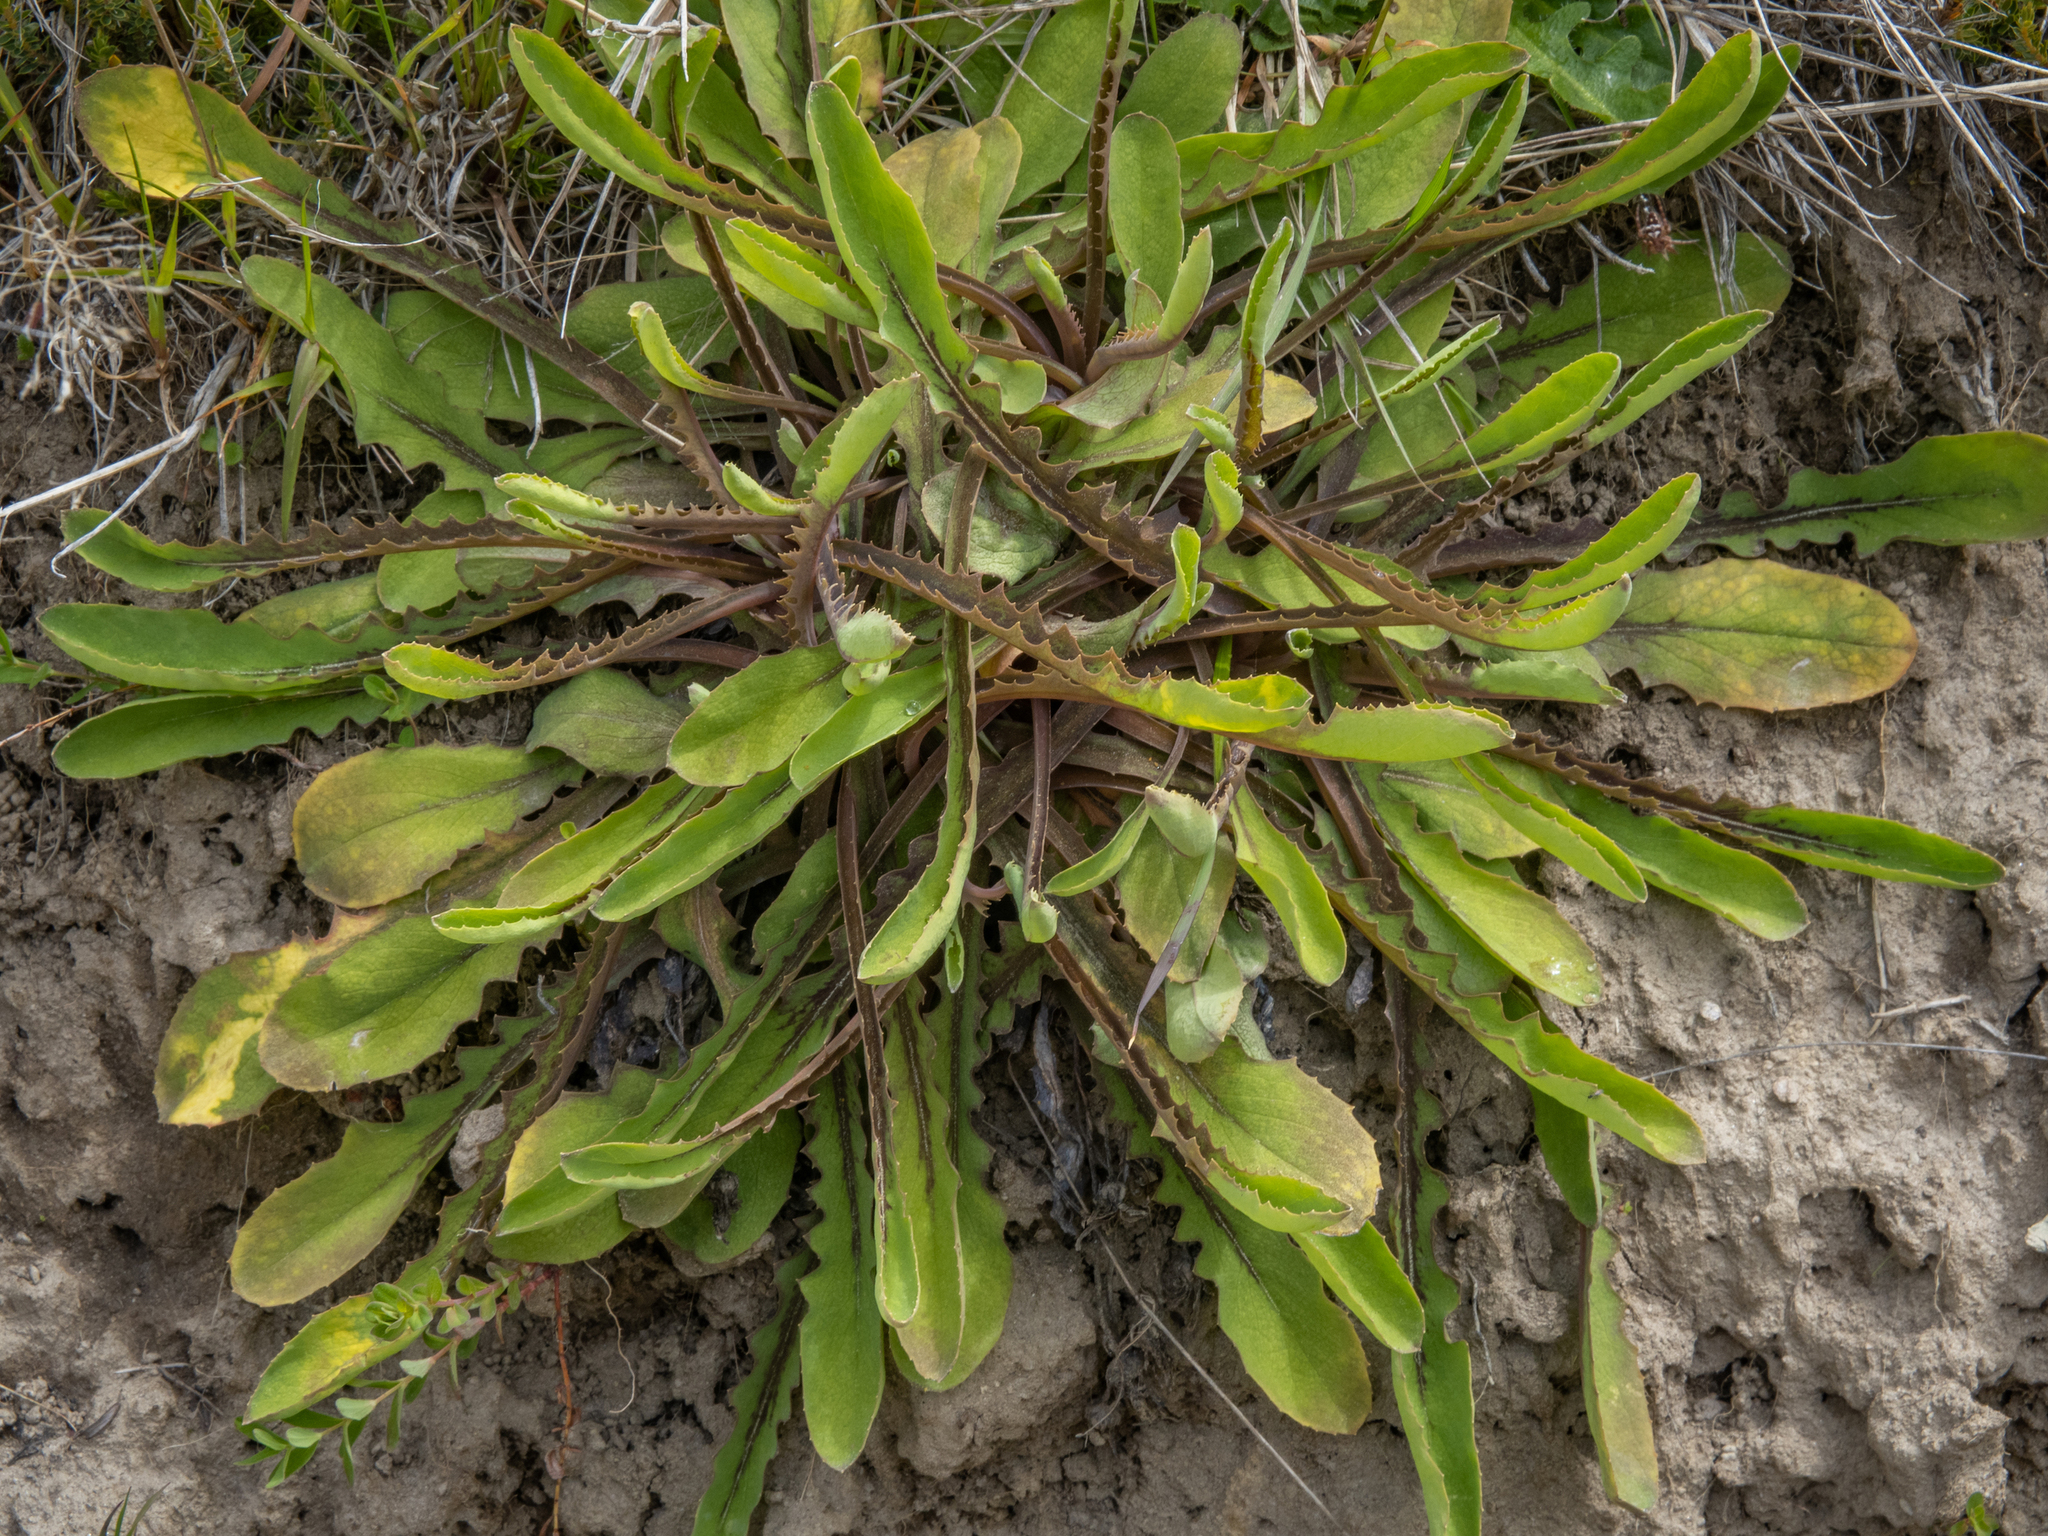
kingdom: Plantae
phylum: Tracheophyta
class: Magnoliopsida
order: Asterales
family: Asteraceae
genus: Sonchus
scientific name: Sonchus novae-zelandiae
